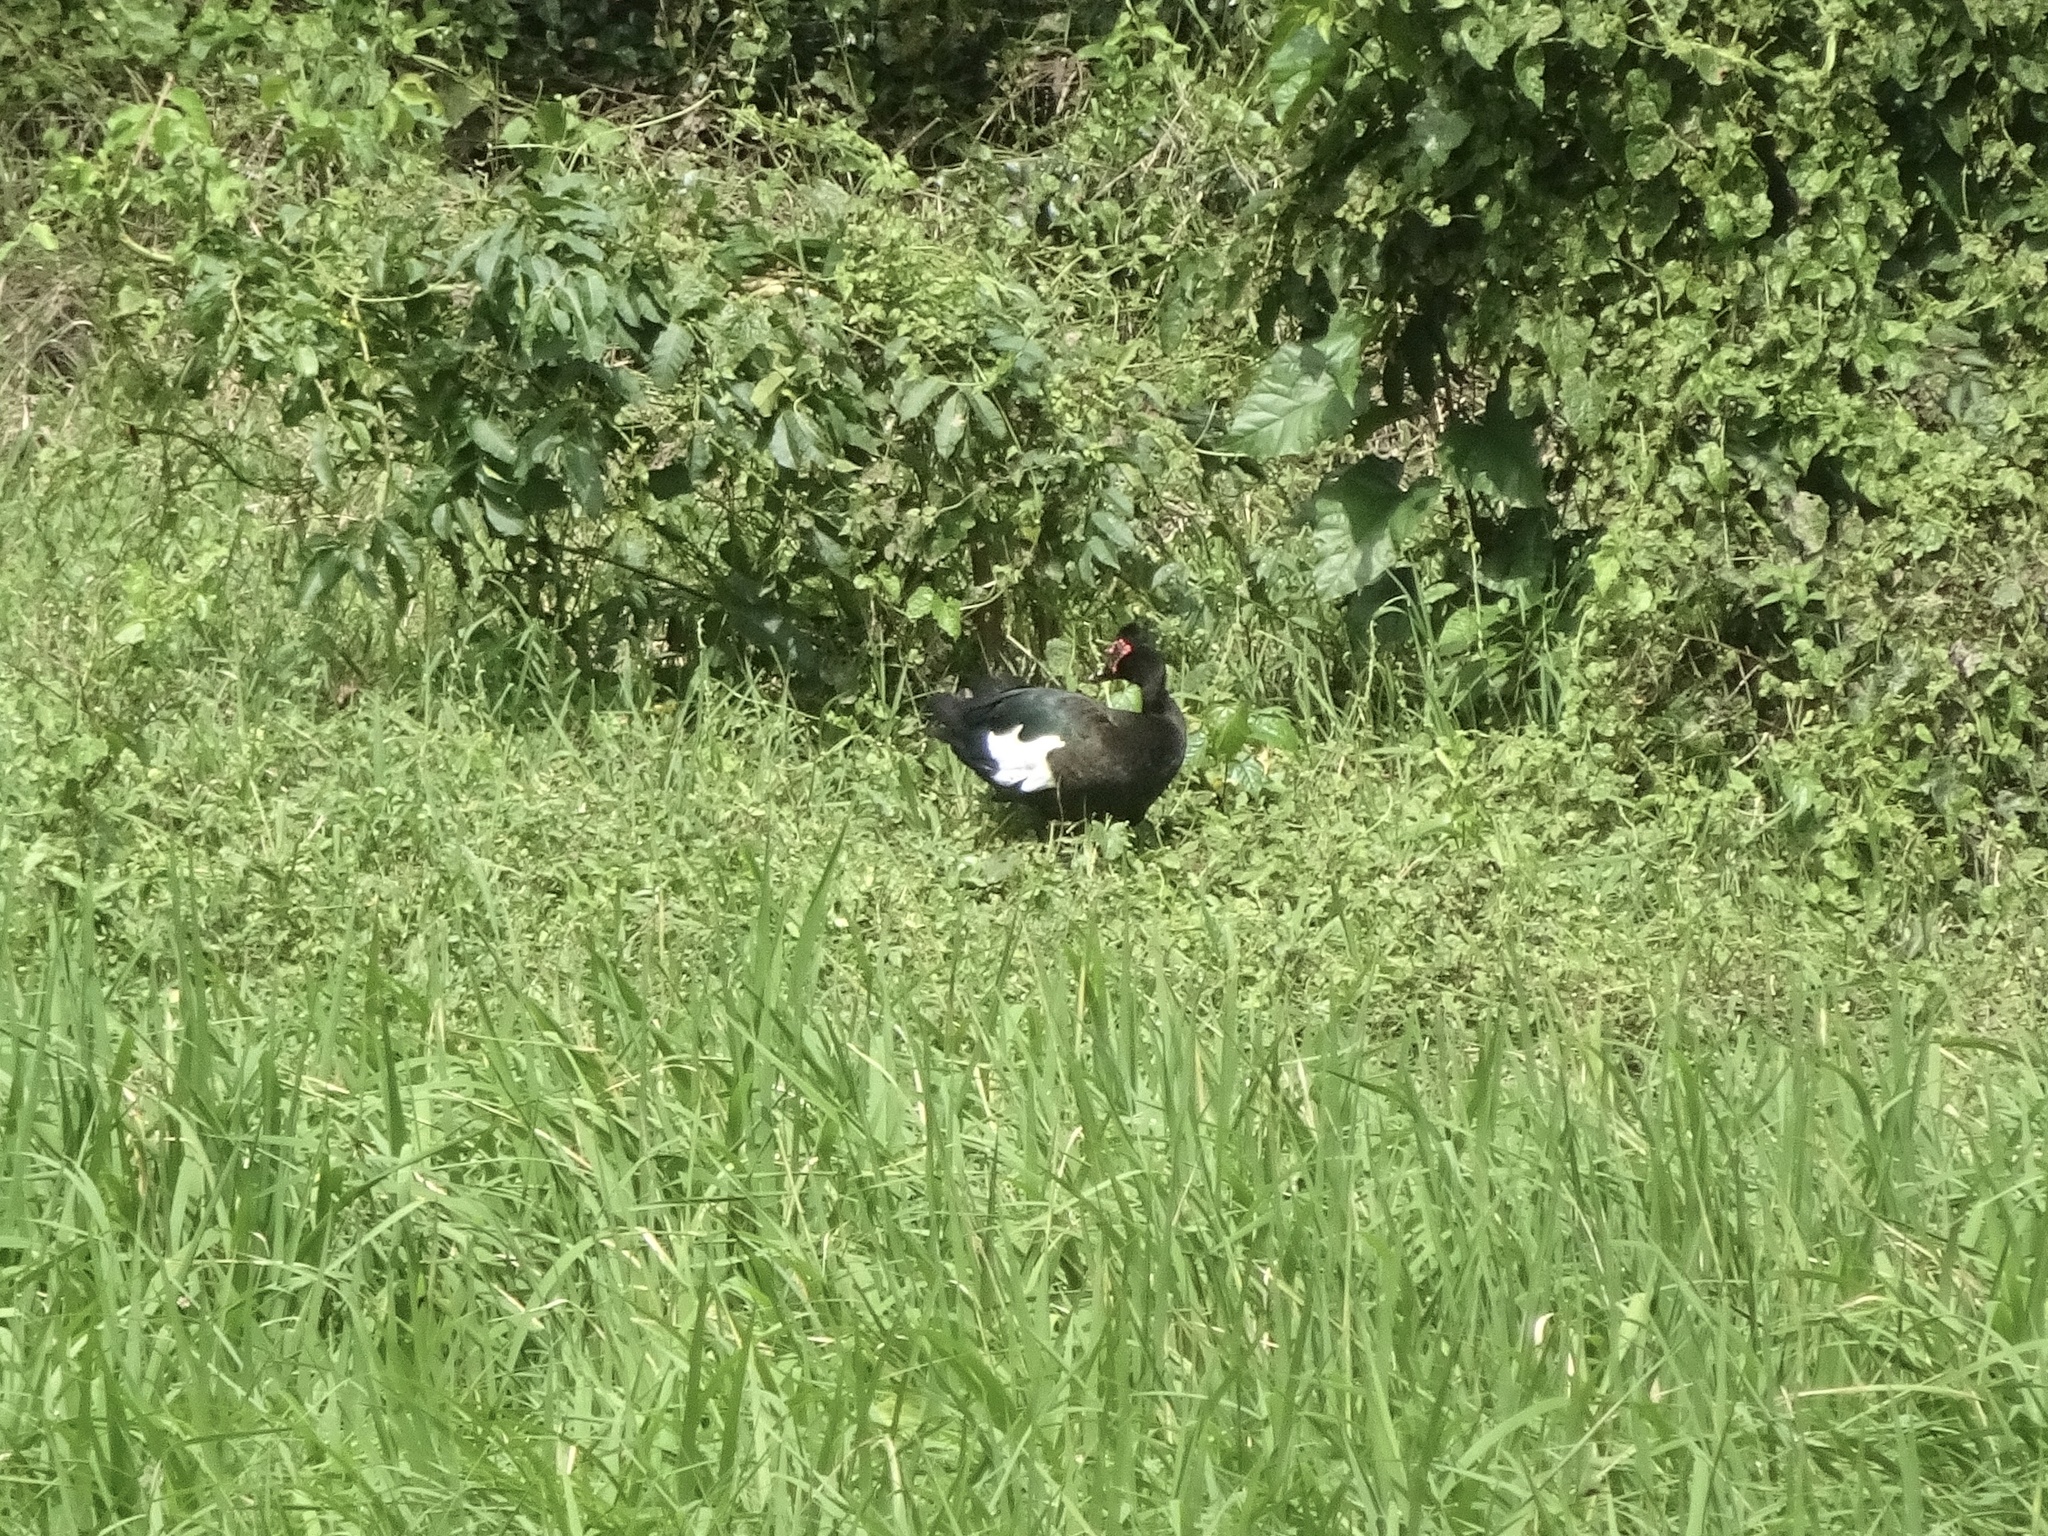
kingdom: Animalia
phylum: Chordata
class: Aves
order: Anseriformes
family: Anatidae
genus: Cairina
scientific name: Cairina moschata
